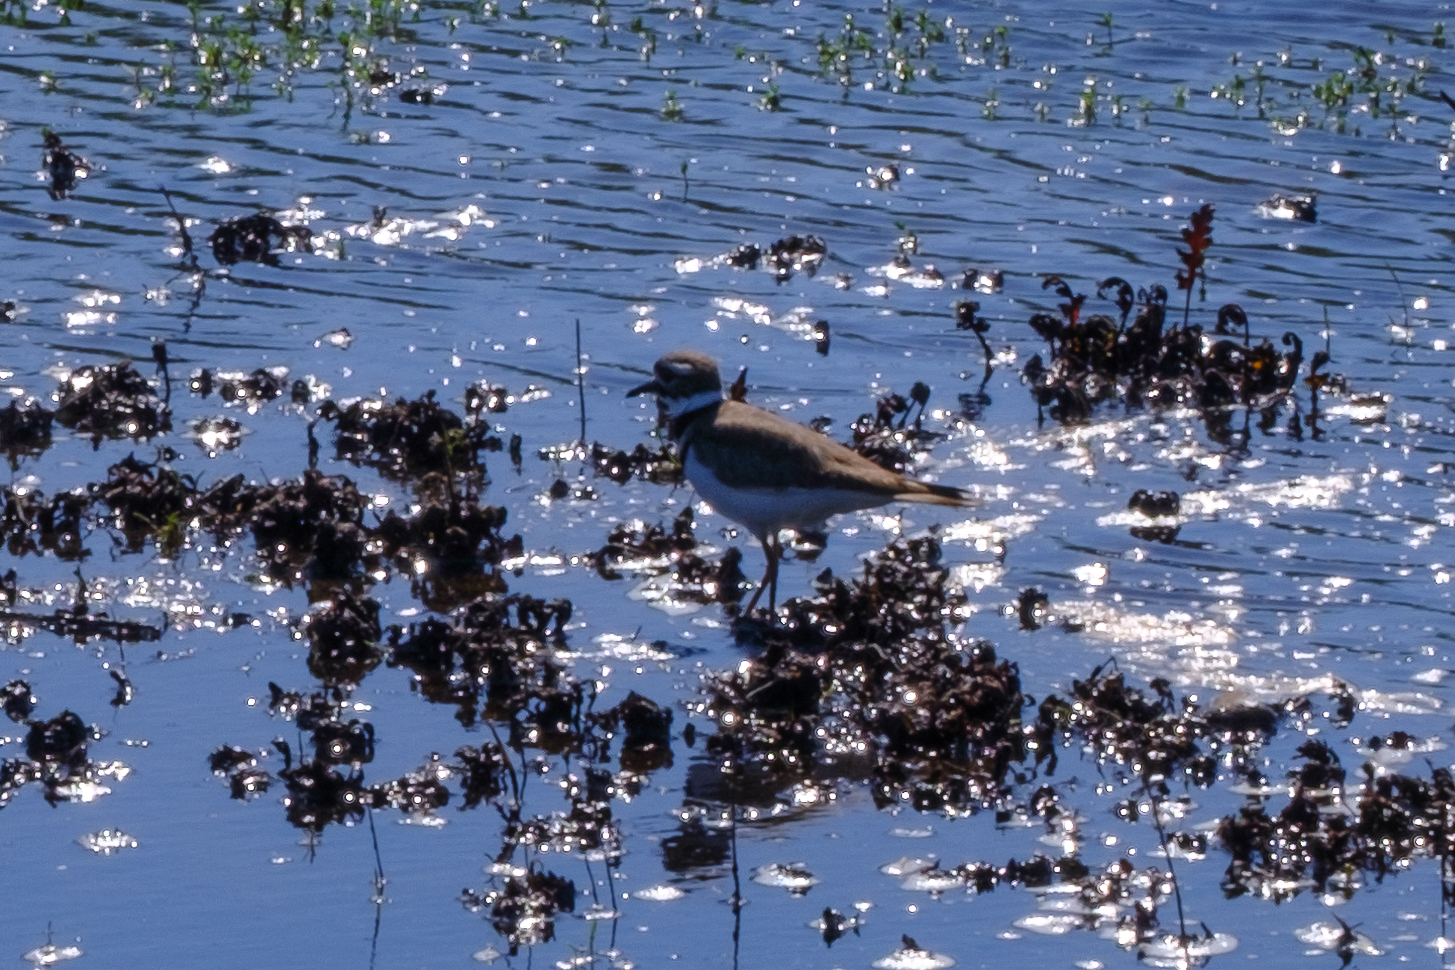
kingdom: Animalia
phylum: Chordata
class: Aves
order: Charadriiformes
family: Charadriidae
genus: Charadrius
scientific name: Charadrius vociferus
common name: Killdeer
